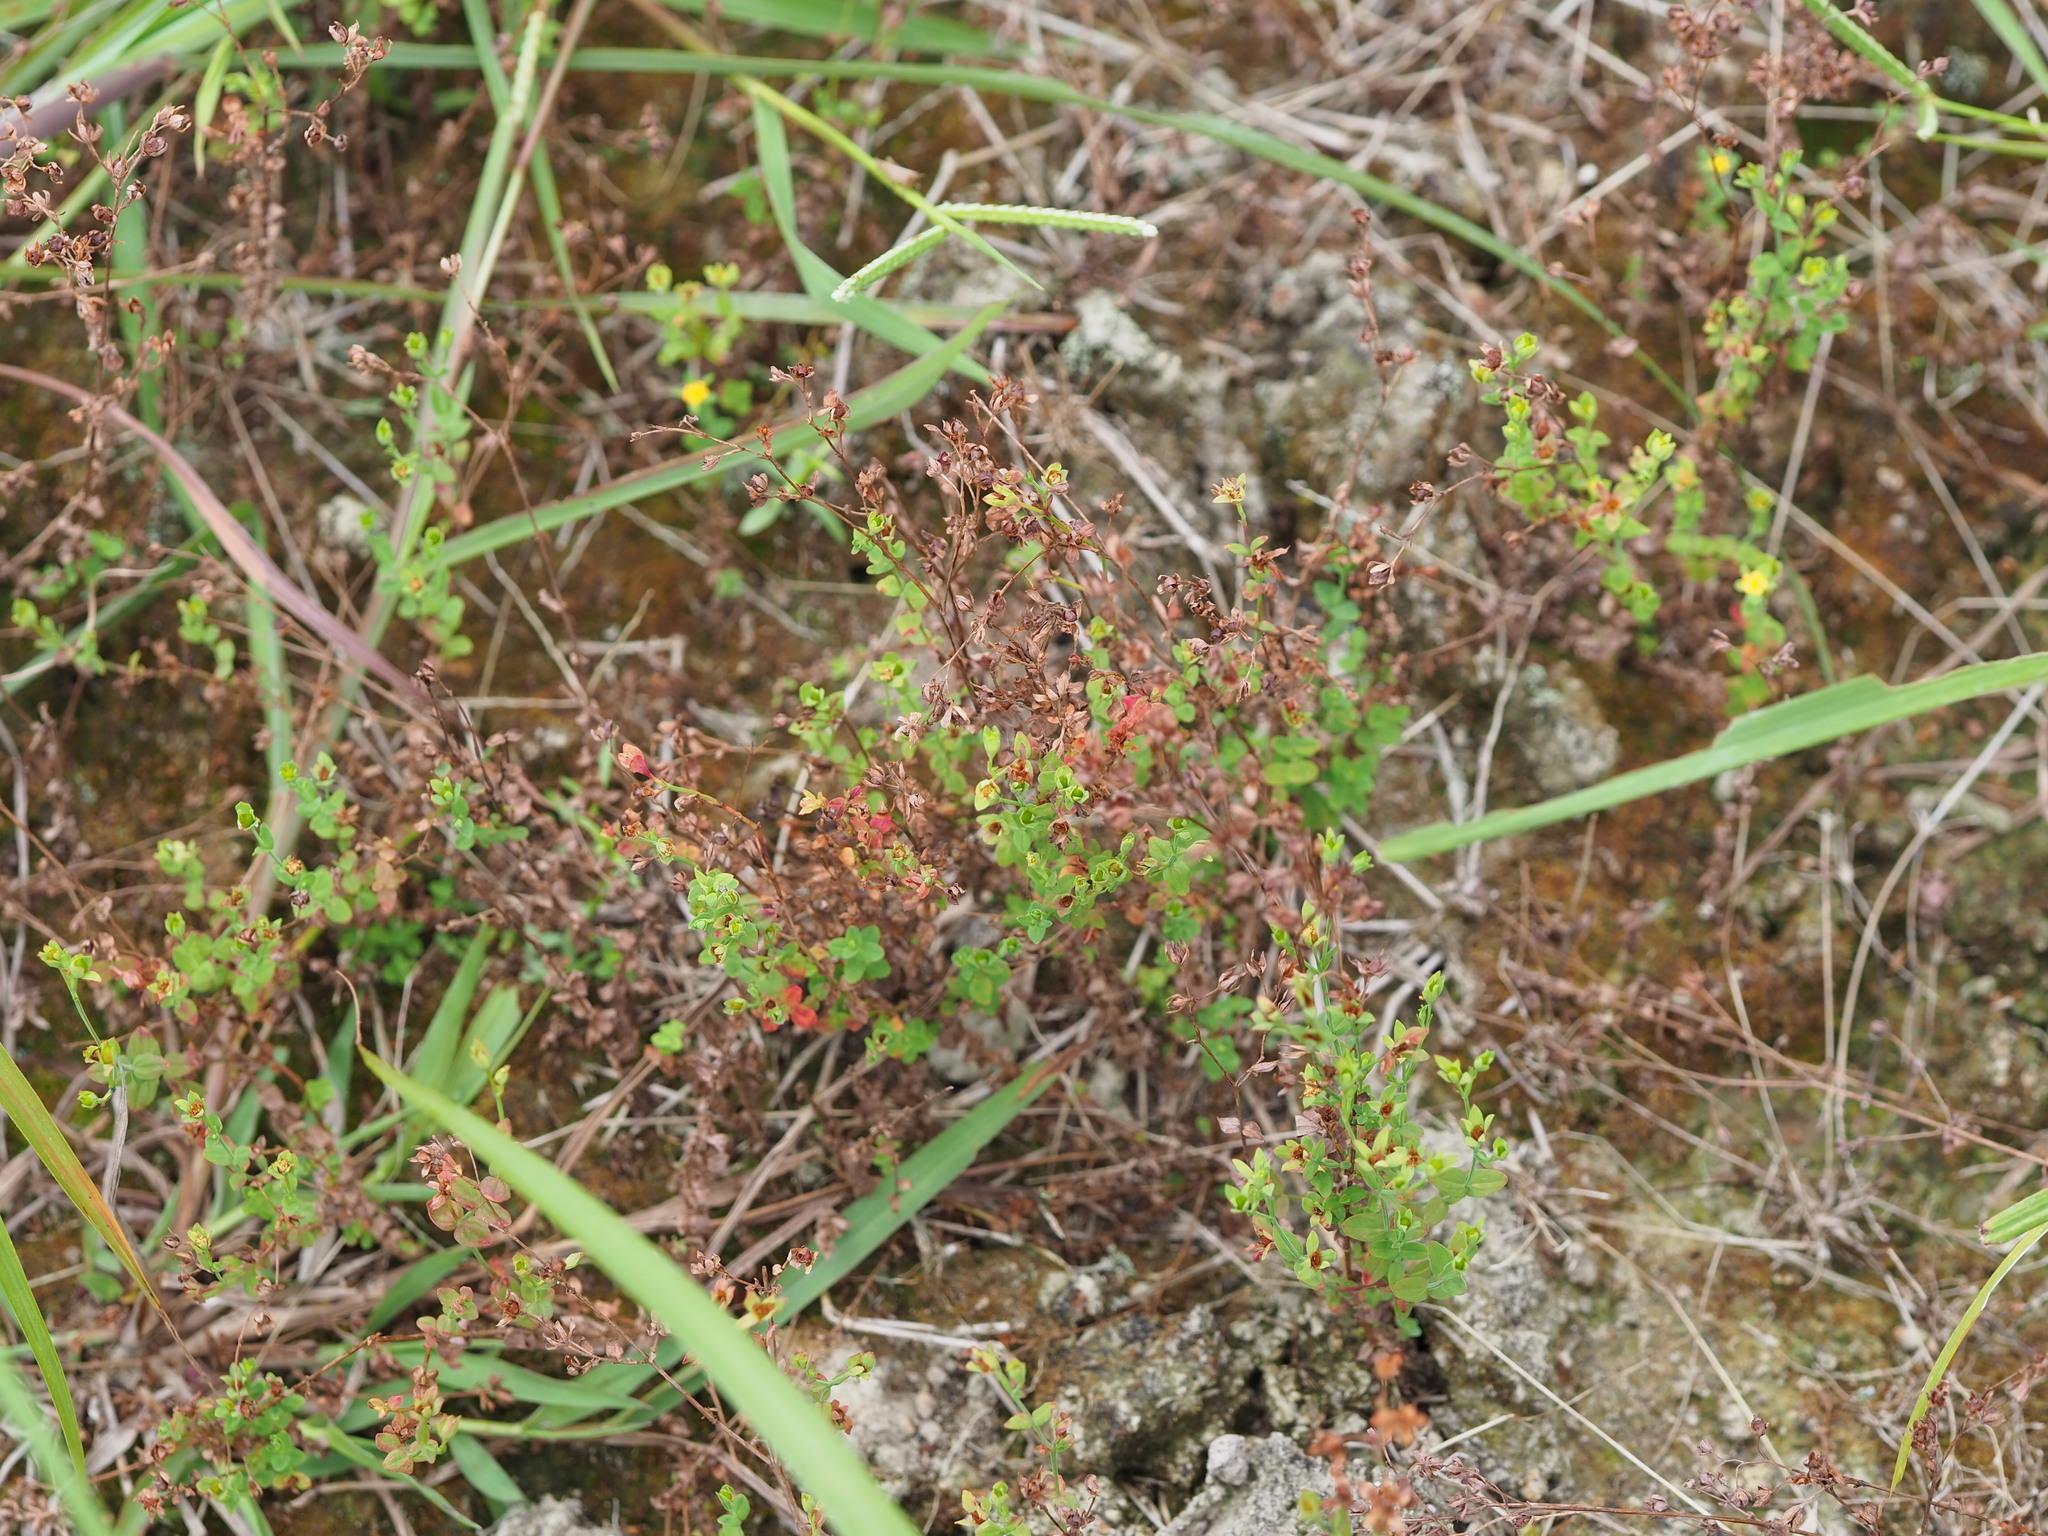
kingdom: Plantae
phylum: Tracheophyta
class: Magnoliopsida
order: Malpighiales
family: Hypericaceae
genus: Hypericum
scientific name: Hypericum japonicum
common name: Matted st. john's-wort
